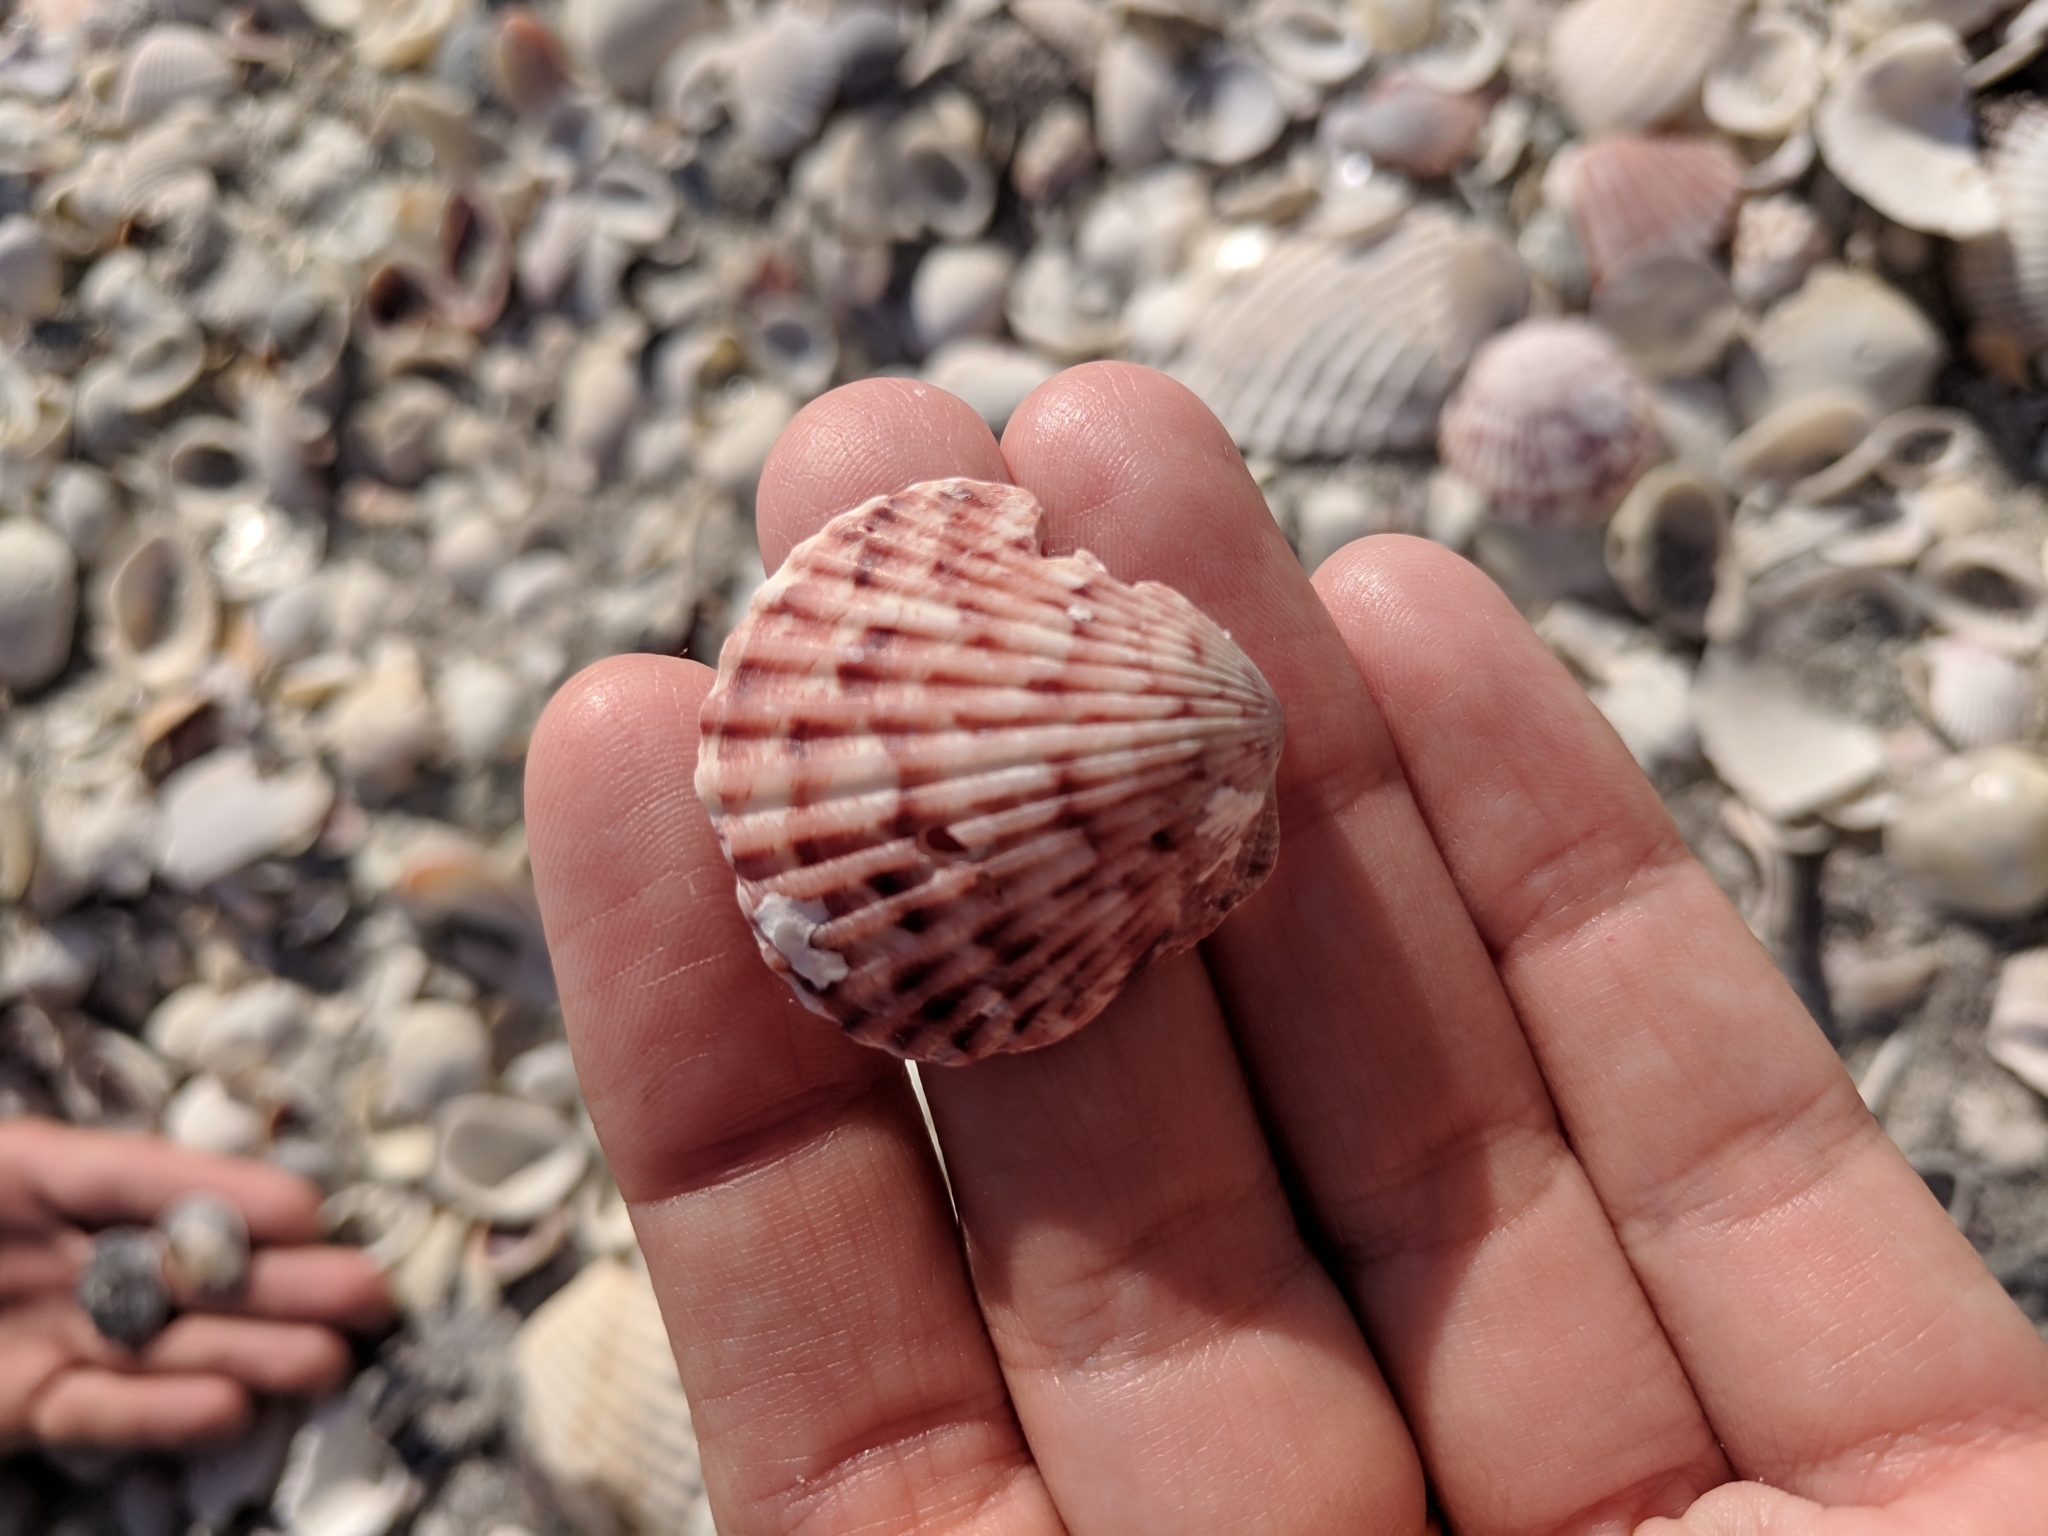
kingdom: Animalia
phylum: Mollusca
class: Bivalvia
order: Pectinida
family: Pectinidae
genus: Argopecten
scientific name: Argopecten gibbus
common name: Atlantic calico scallop
